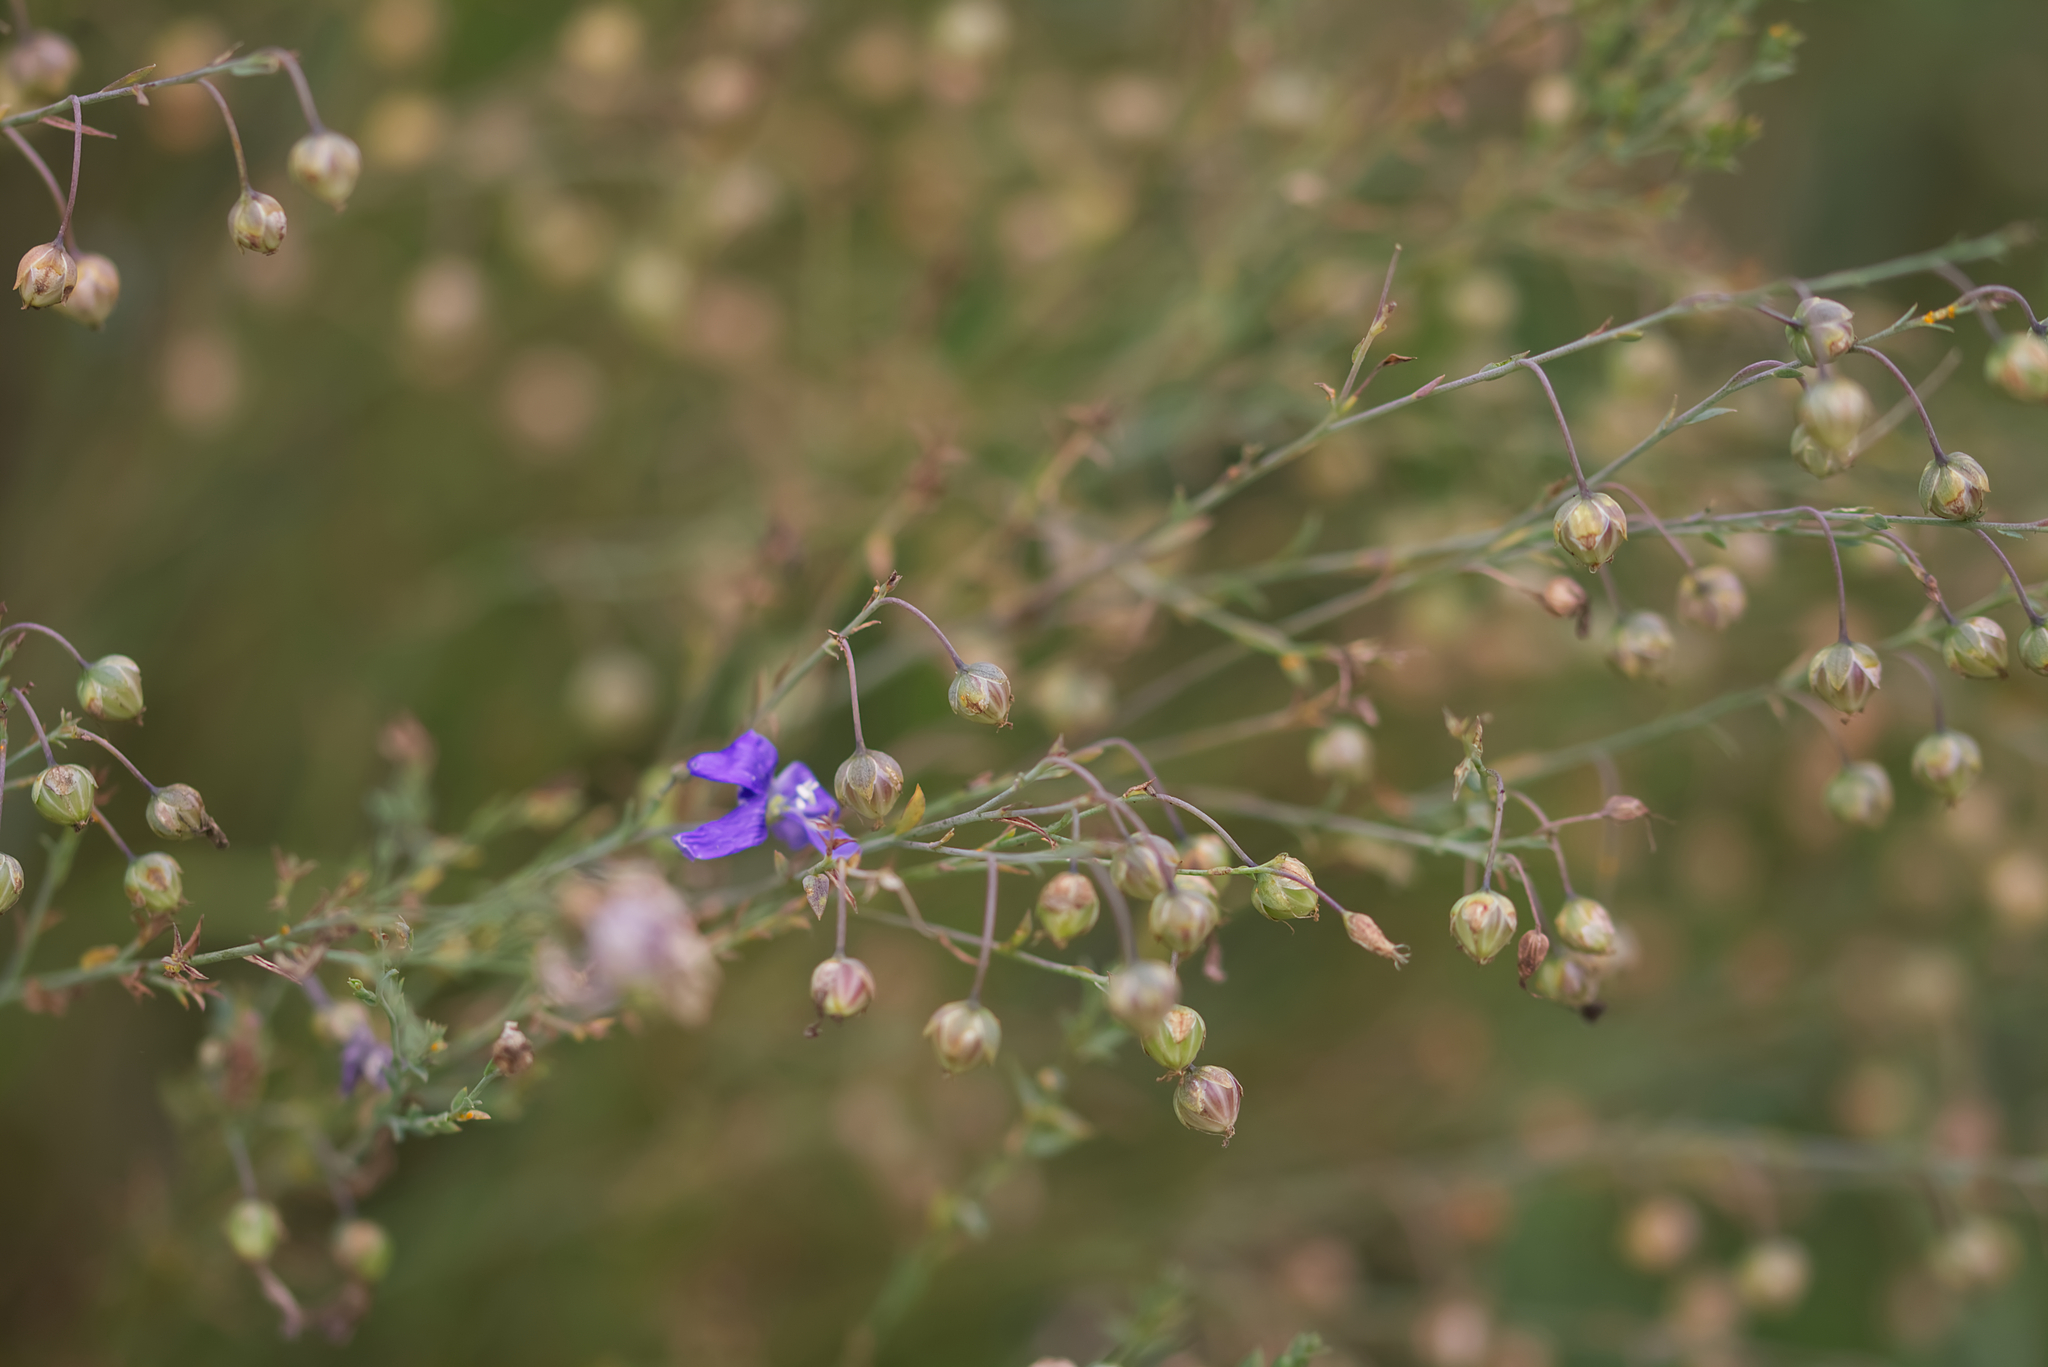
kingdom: Plantae
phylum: Tracheophyta
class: Magnoliopsida
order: Malpighiales
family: Linaceae
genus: Linum
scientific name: Linum austriacum
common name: Austrian flax
